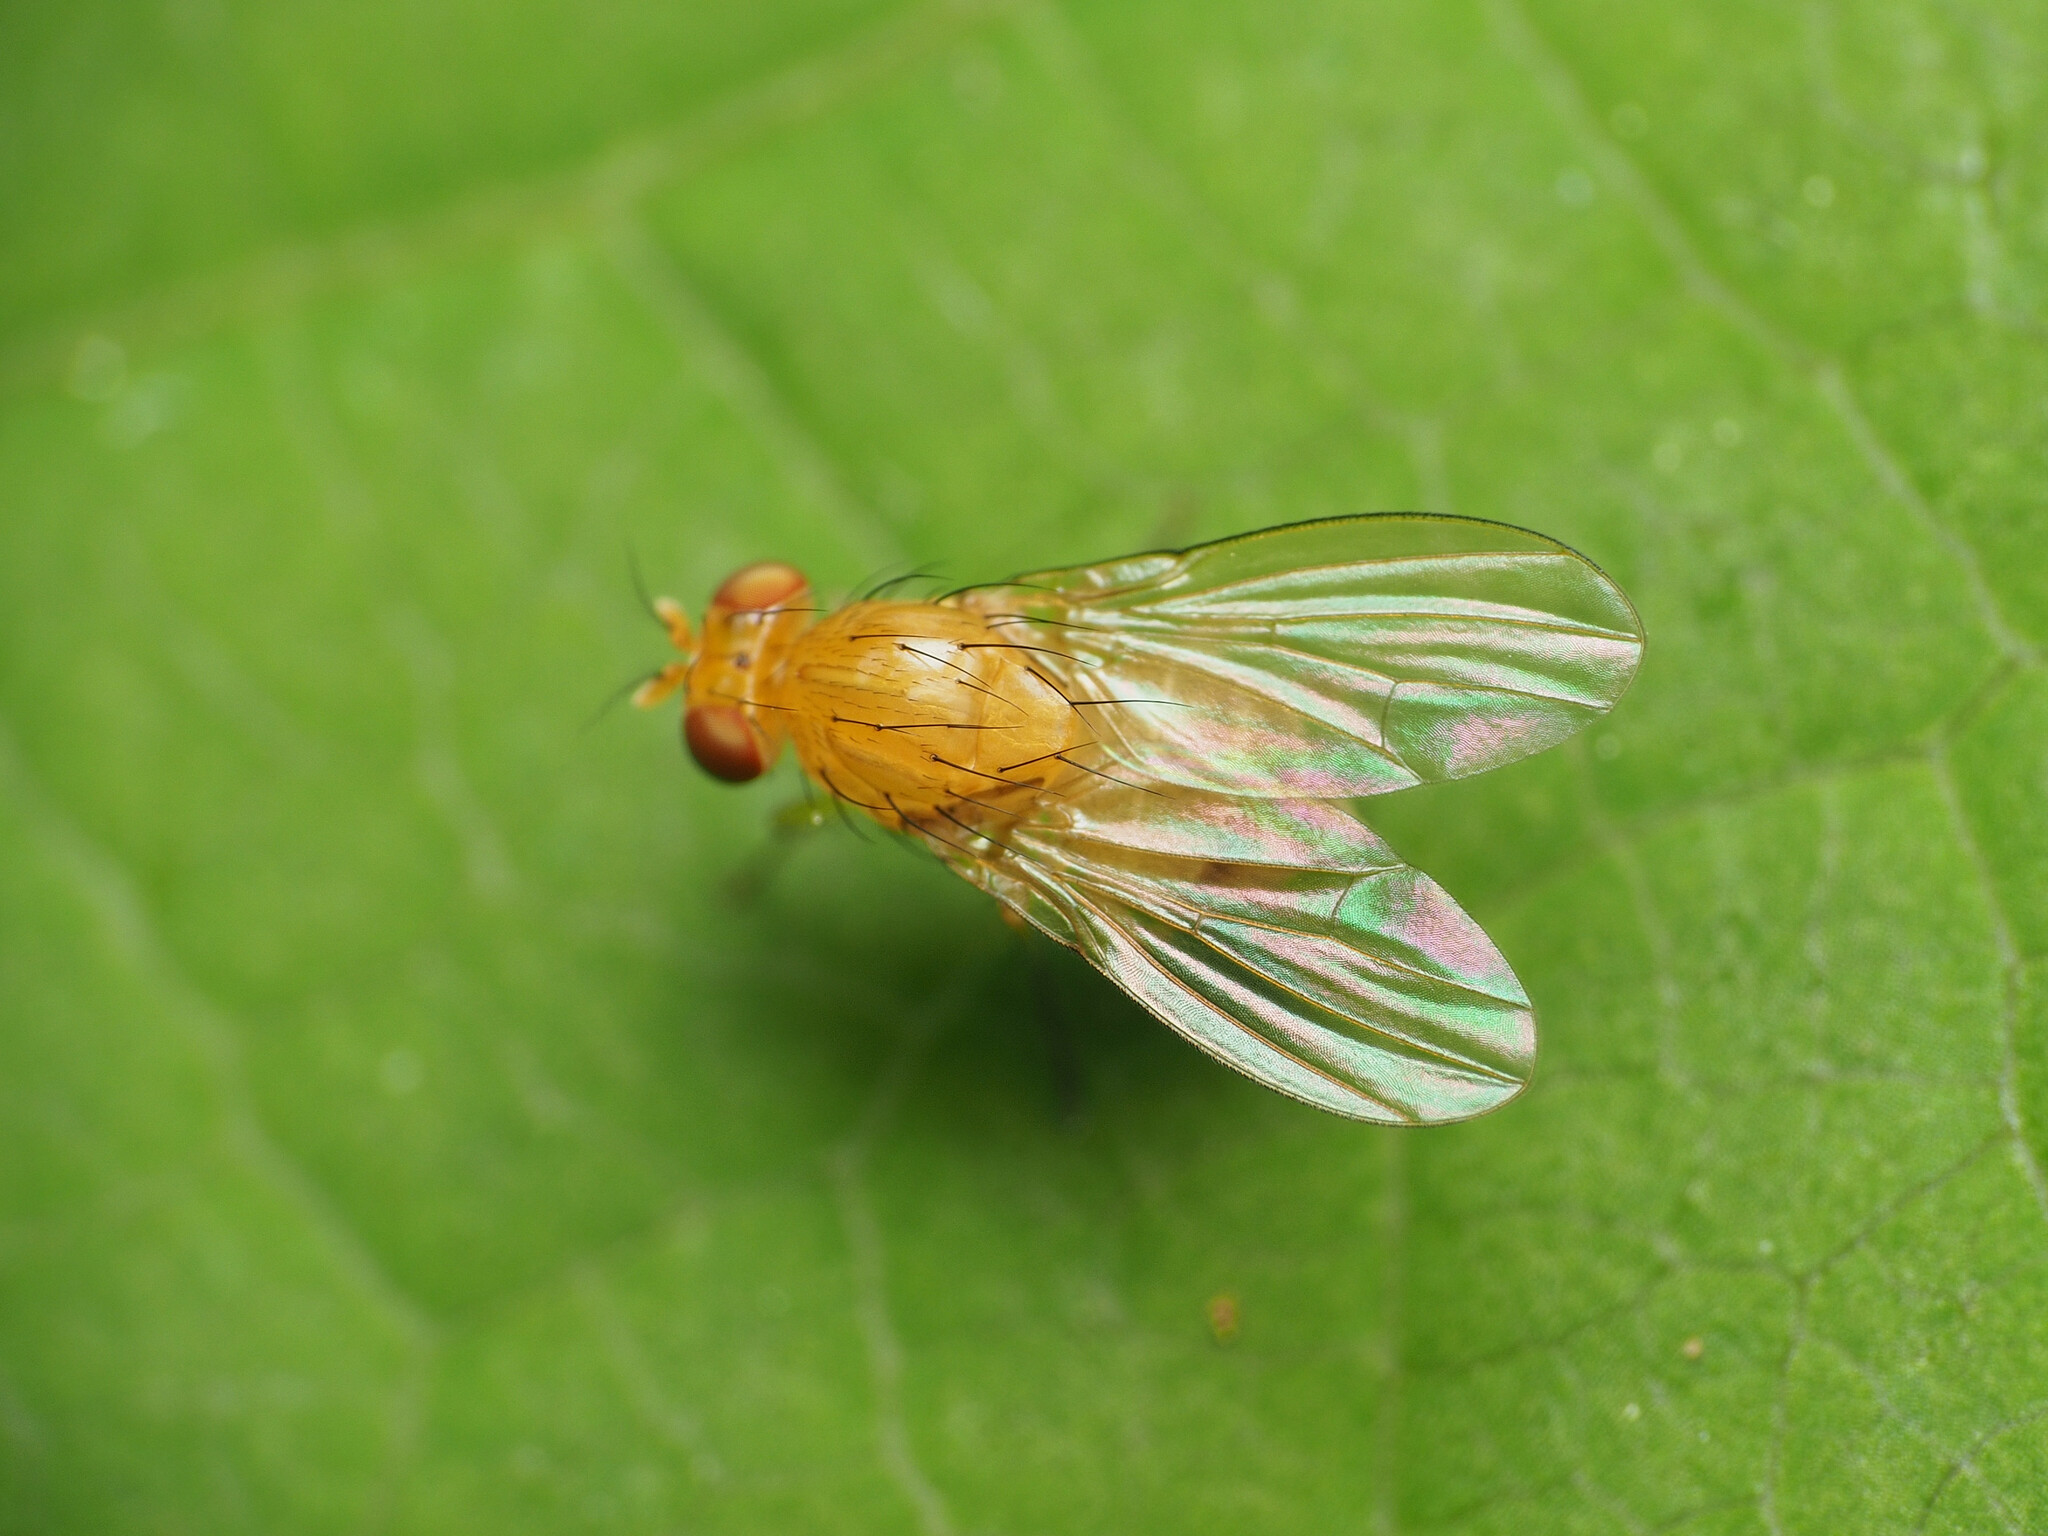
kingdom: Animalia
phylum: Arthropoda
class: Insecta
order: Diptera
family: Lauxaniidae
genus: Neogriphoneura
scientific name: Neogriphoneura sordida
